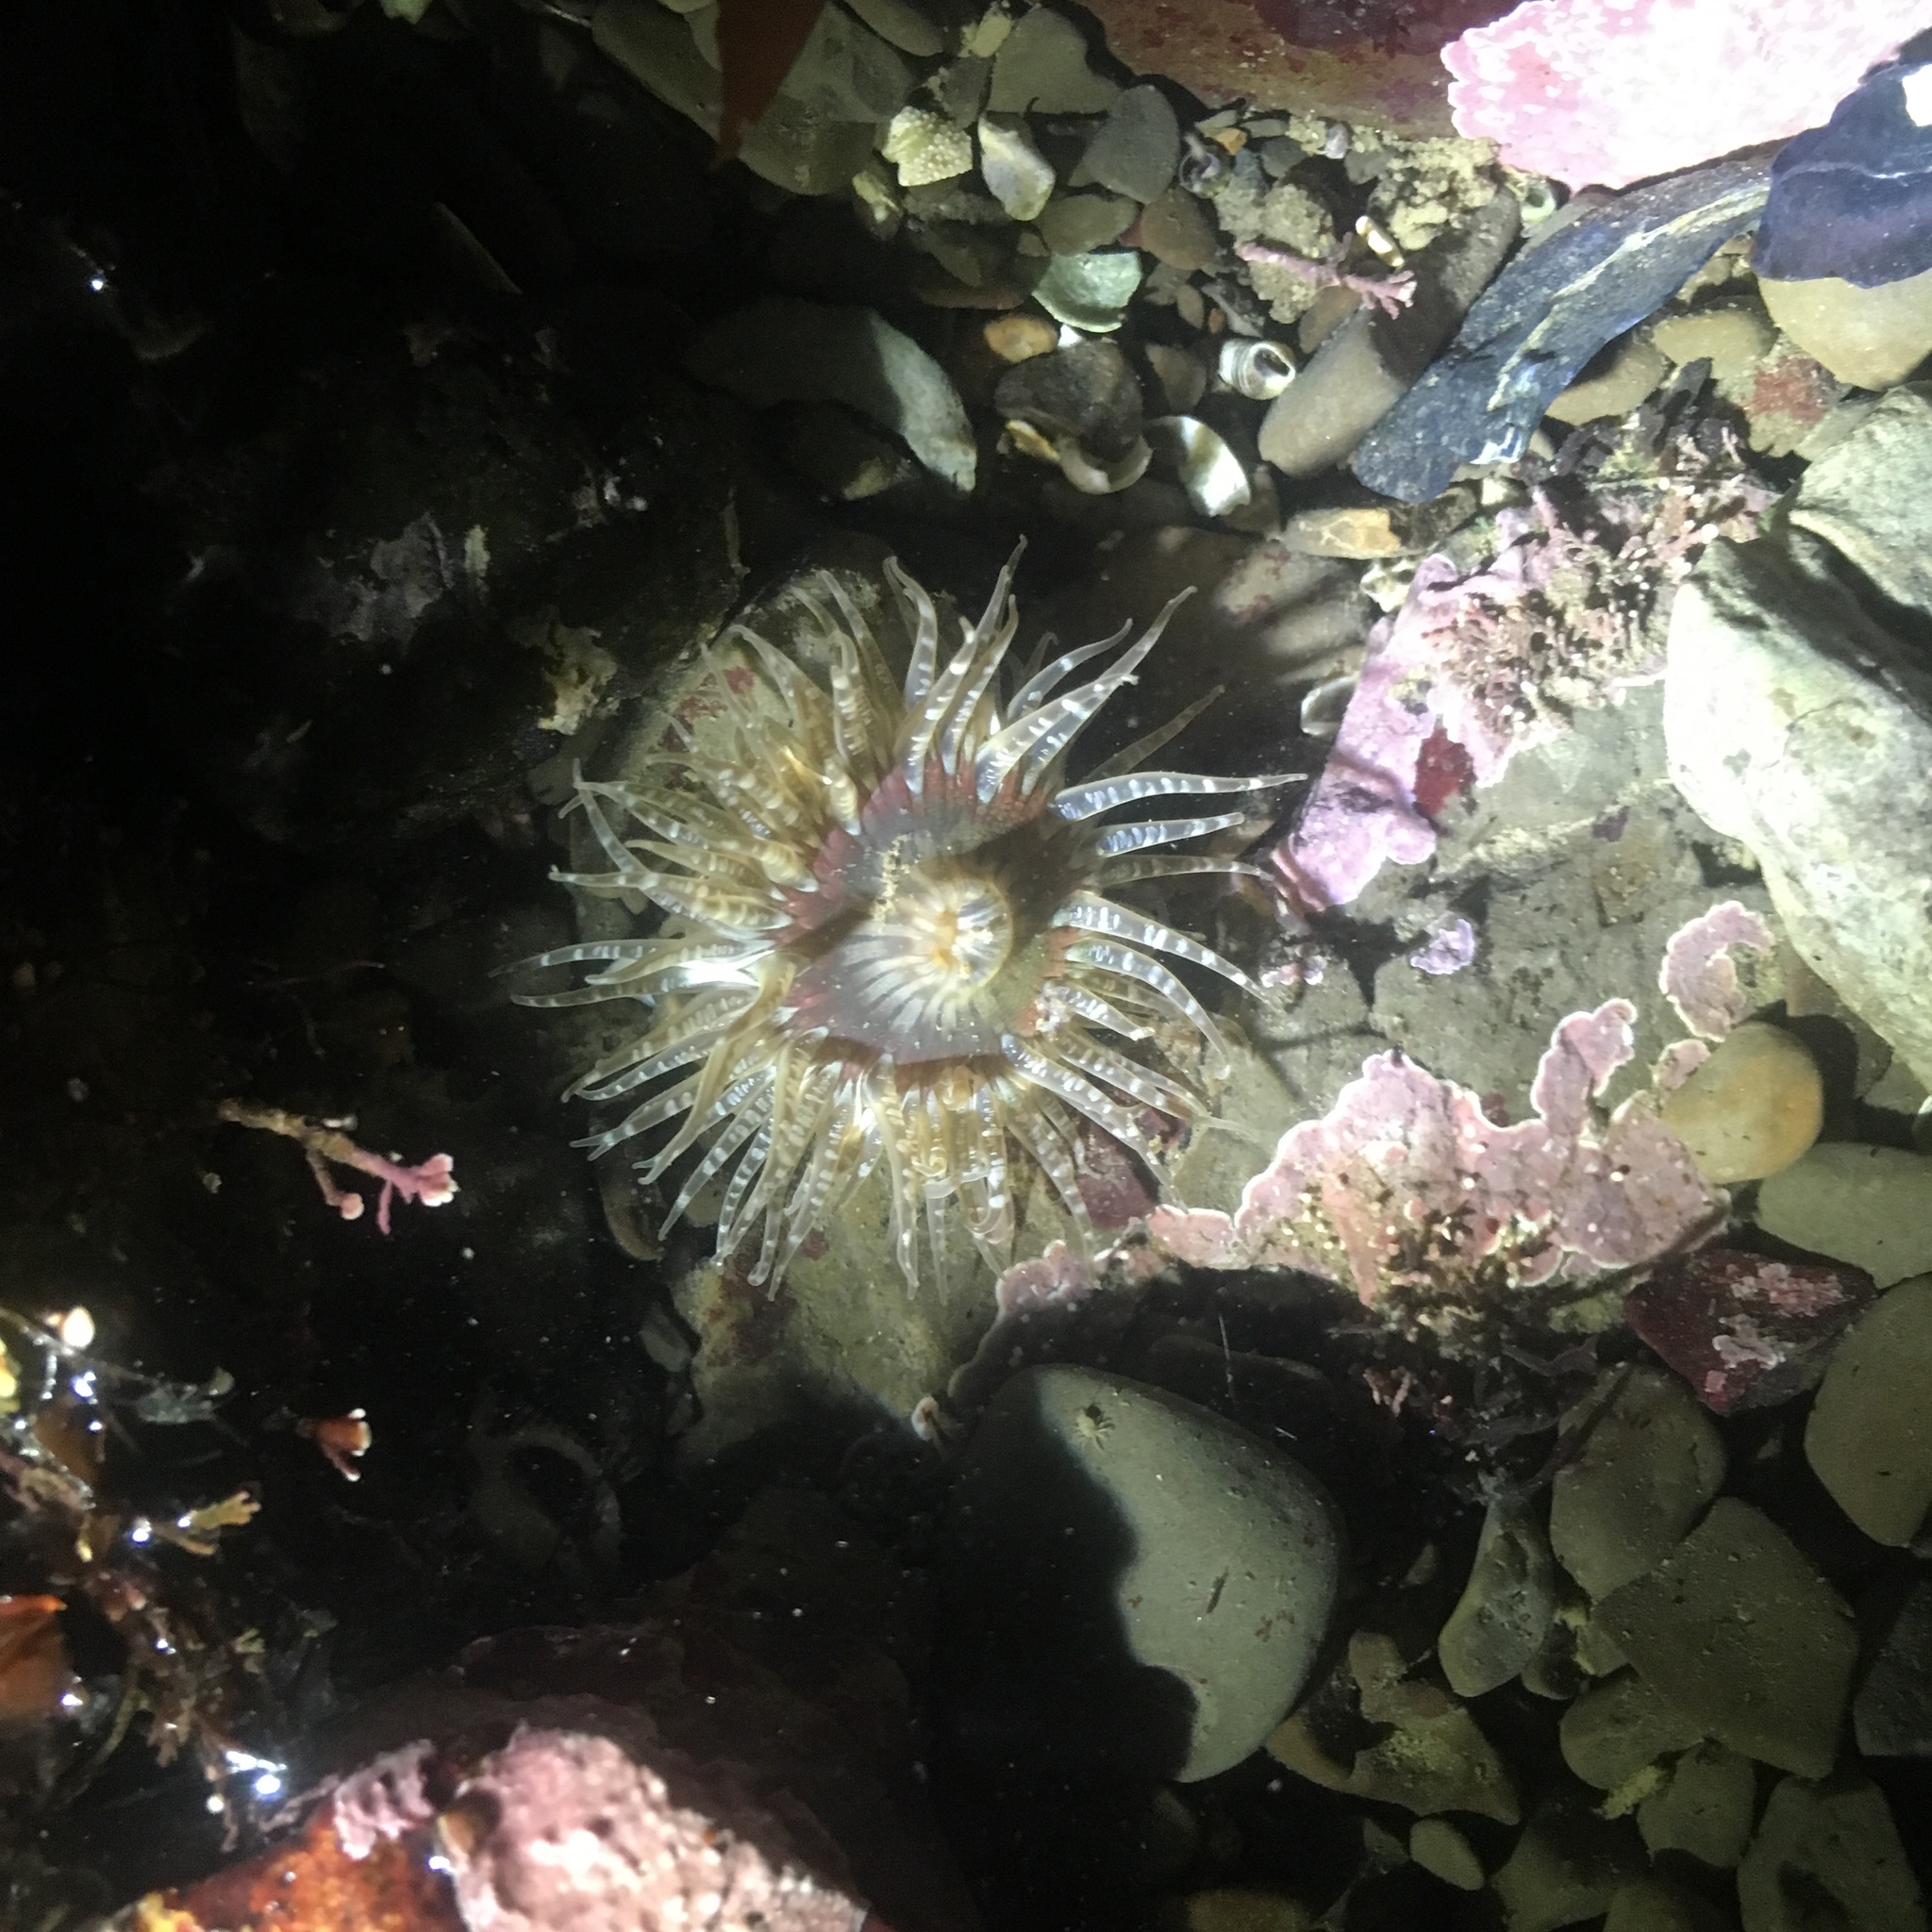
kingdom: Animalia
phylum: Cnidaria
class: Anthozoa
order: Actiniaria
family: Actiniidae
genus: Anthopleura
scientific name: Anthopleura artemisia
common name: Buried sea anemone
